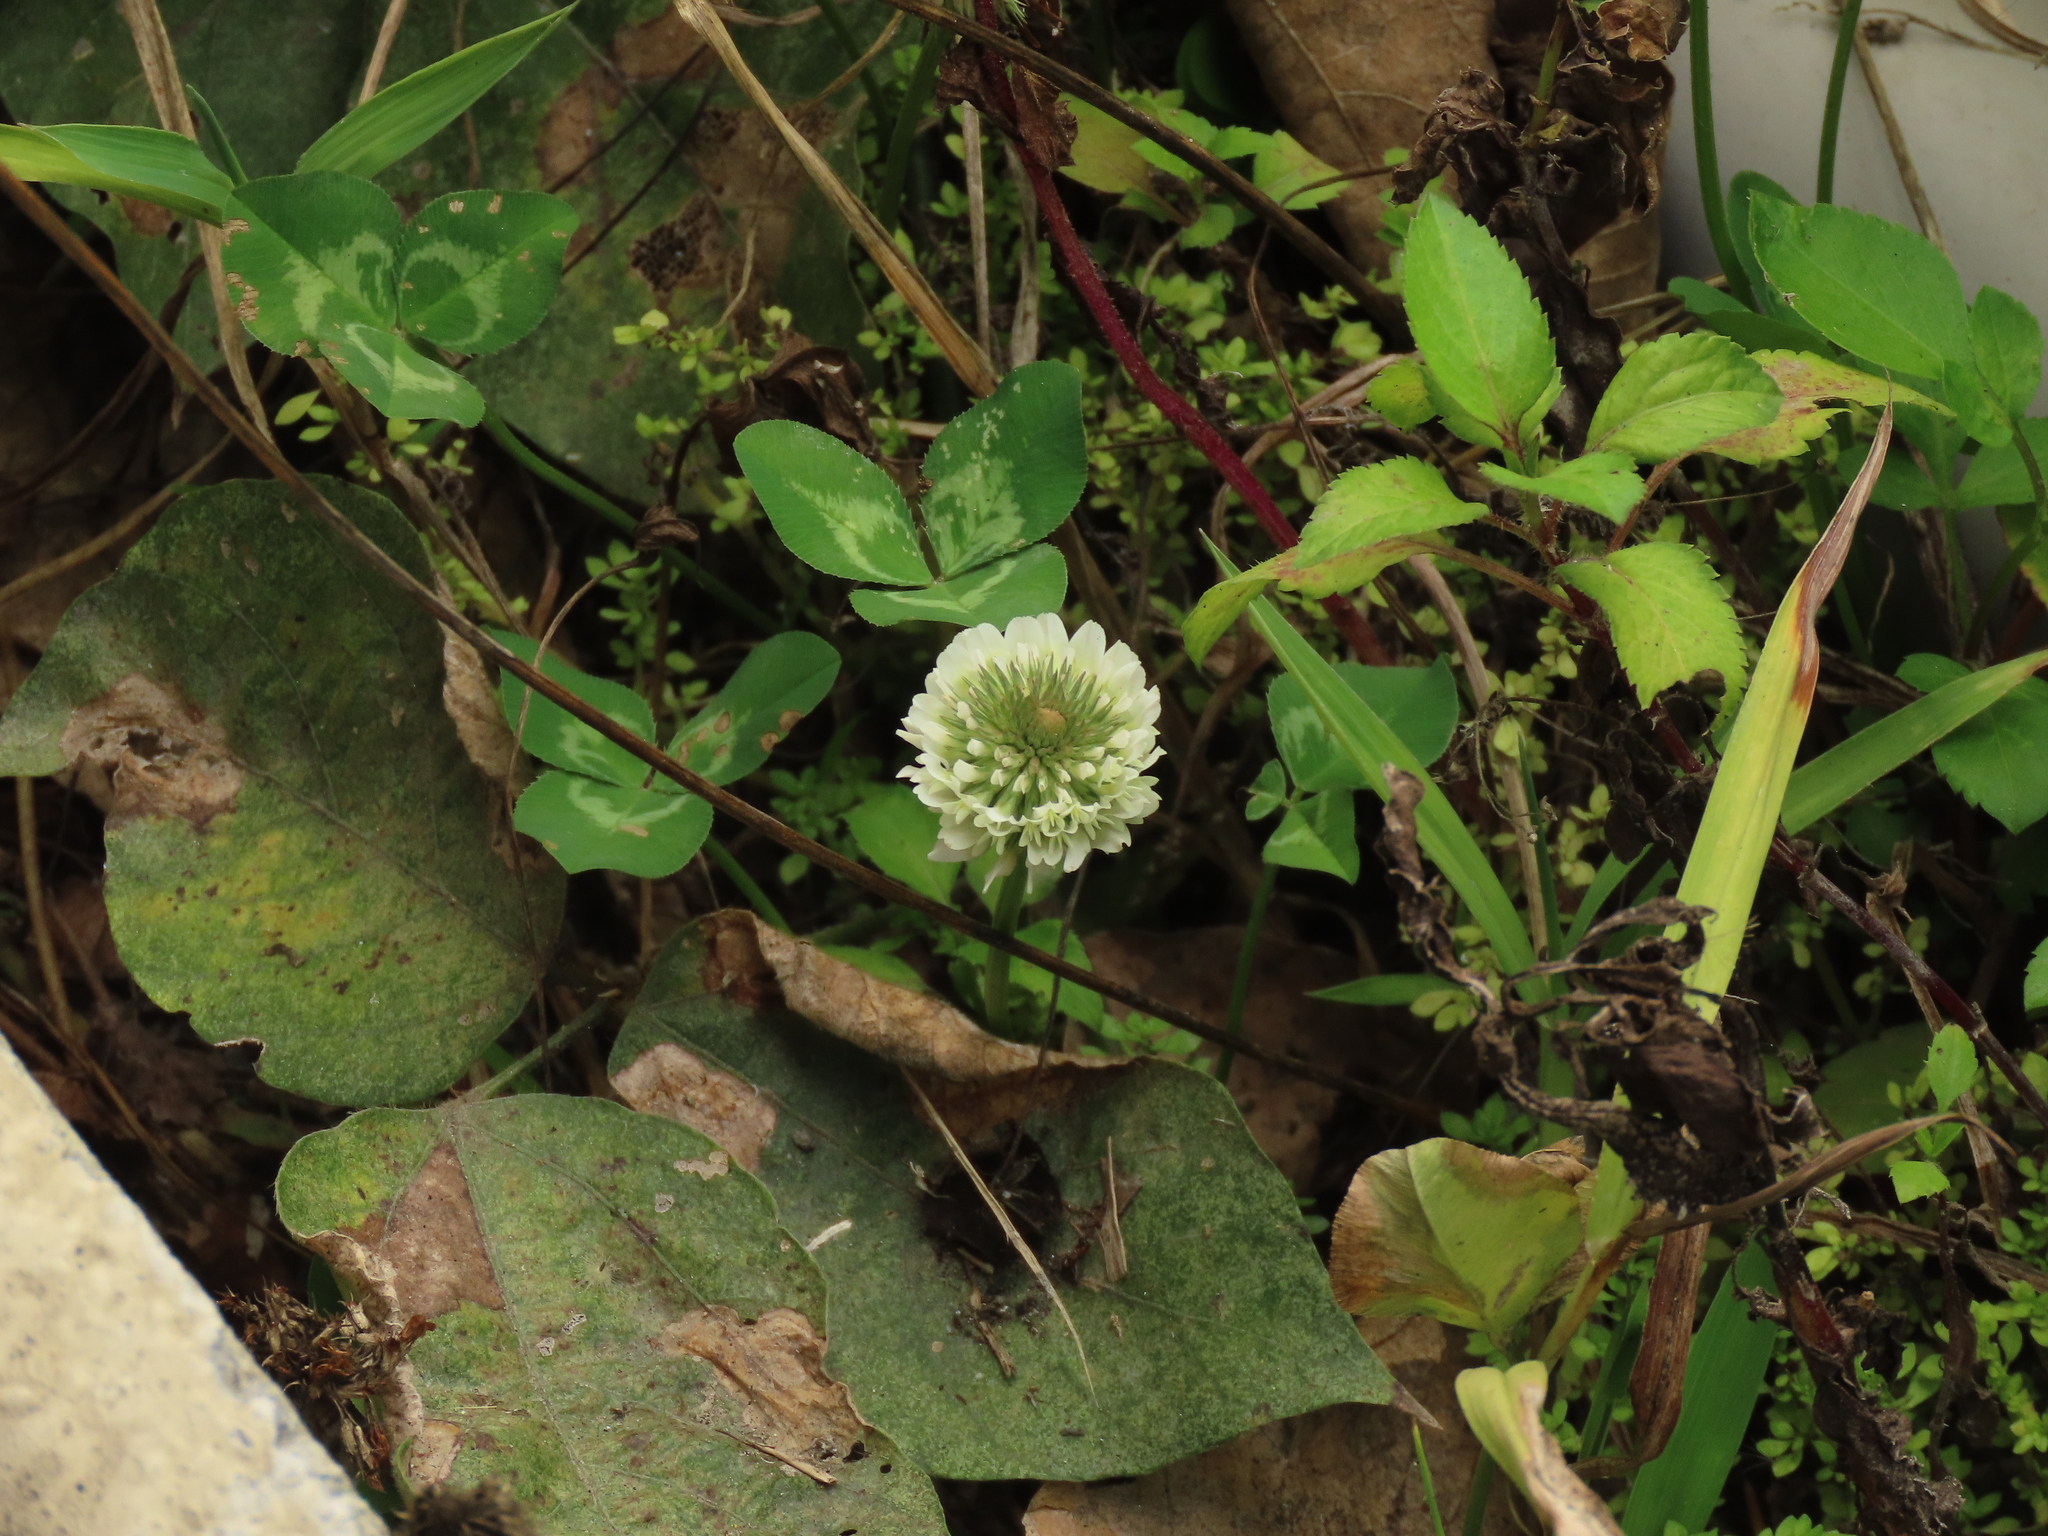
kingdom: Plantae
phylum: Tracheophyta
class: Magnoliopsida
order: Fabales
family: Fabaceae
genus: Trifolium
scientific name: Trifolium repens
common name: White clover
